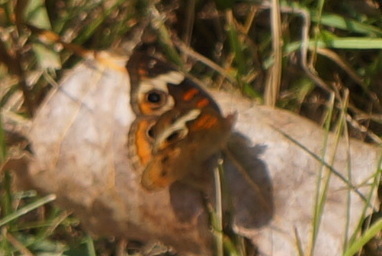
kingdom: Animalia
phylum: Arthropoda
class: Insecta
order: Lepidoptera
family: Nymphalidae
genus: Junonia
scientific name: Junonia coenia
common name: Common buckeye
